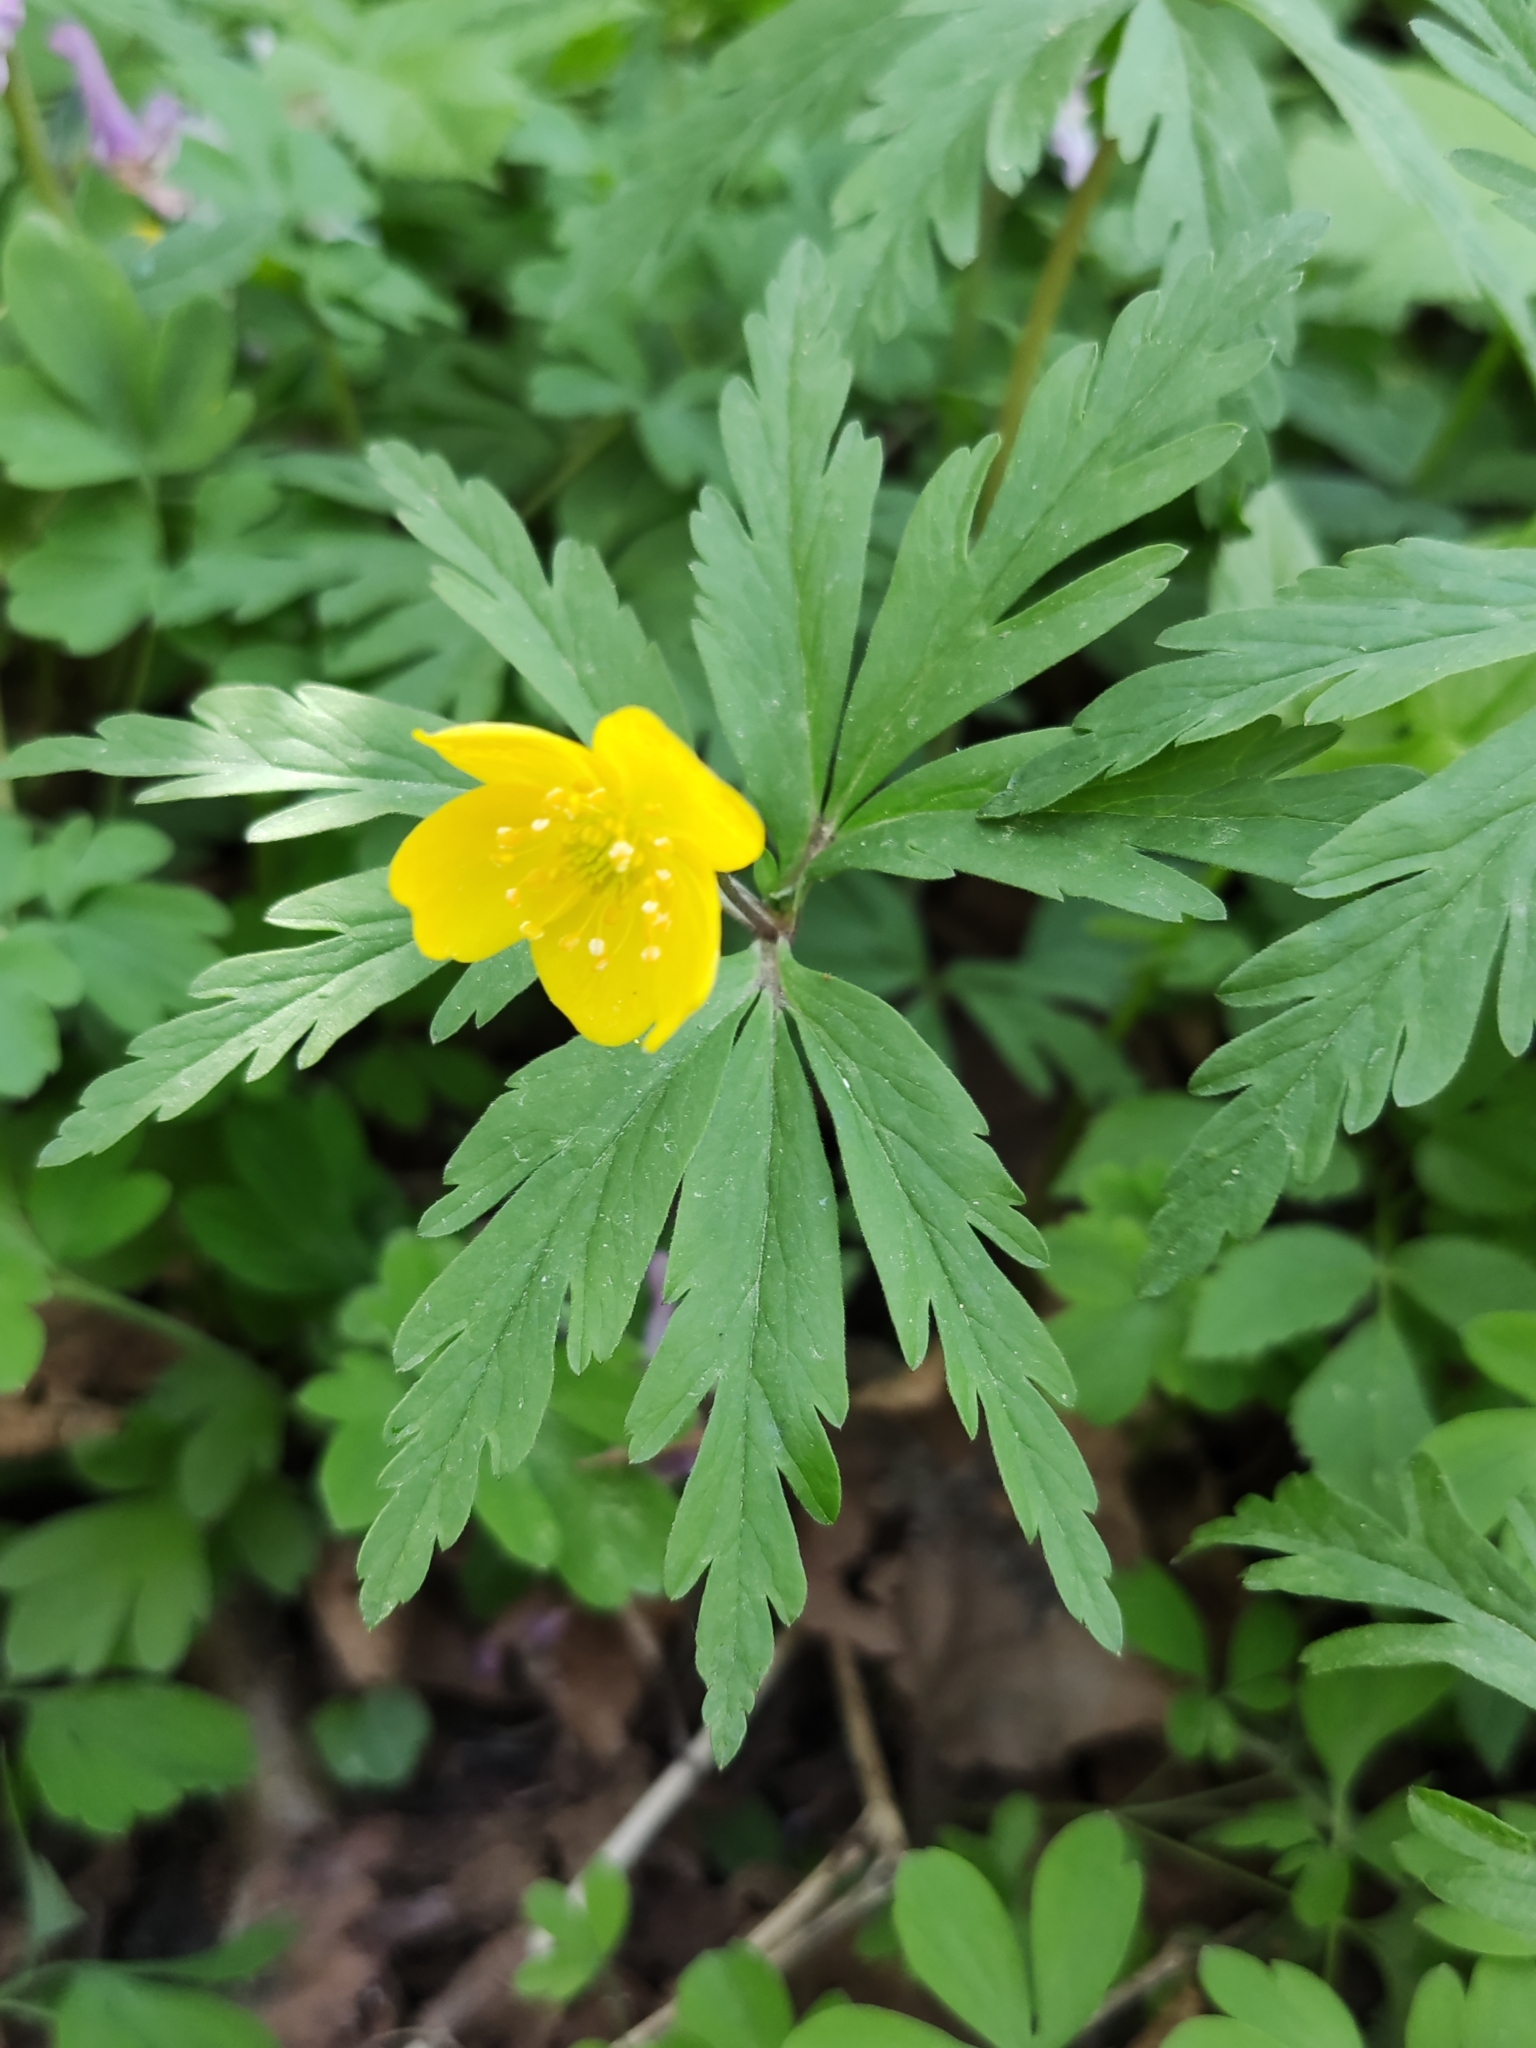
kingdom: Plantae
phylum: Tracheophyta
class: Magnoliopsida
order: Ranunculales
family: Ranunculaceae
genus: Anemone
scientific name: Anemone ranunculoides
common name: Yellow anemone
